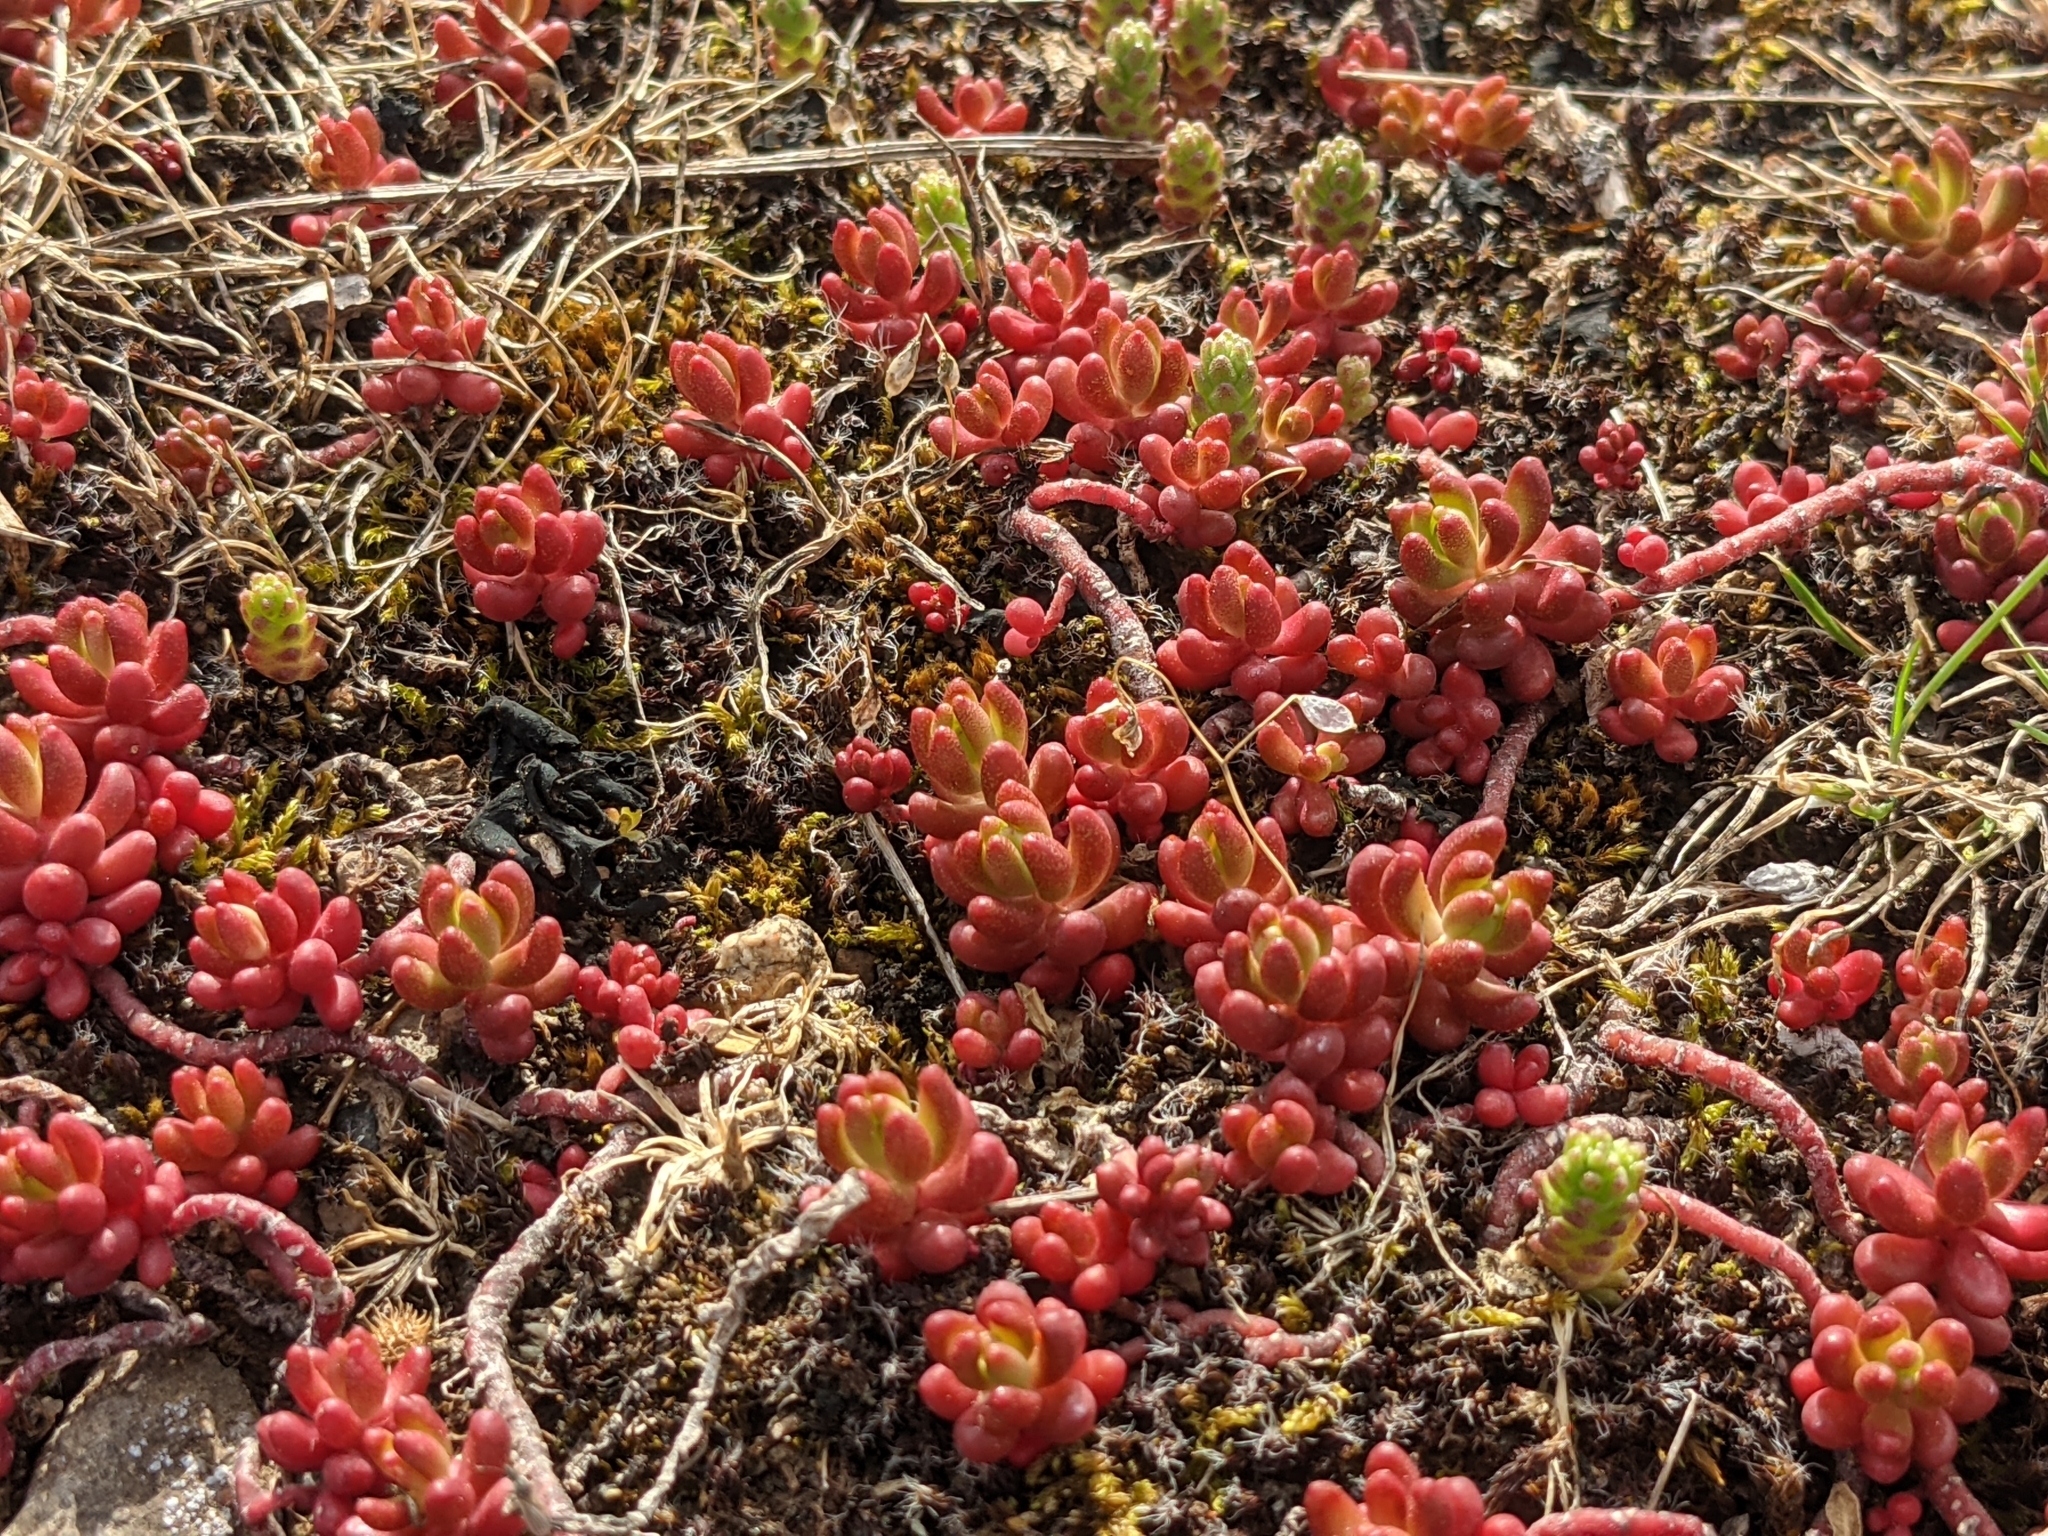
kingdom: Plantae
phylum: Tracheophyta
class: Magnoliopsida
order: Saxifragales
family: Crassulaceae
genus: Sedum
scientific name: Sedum album
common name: White stonecrop
